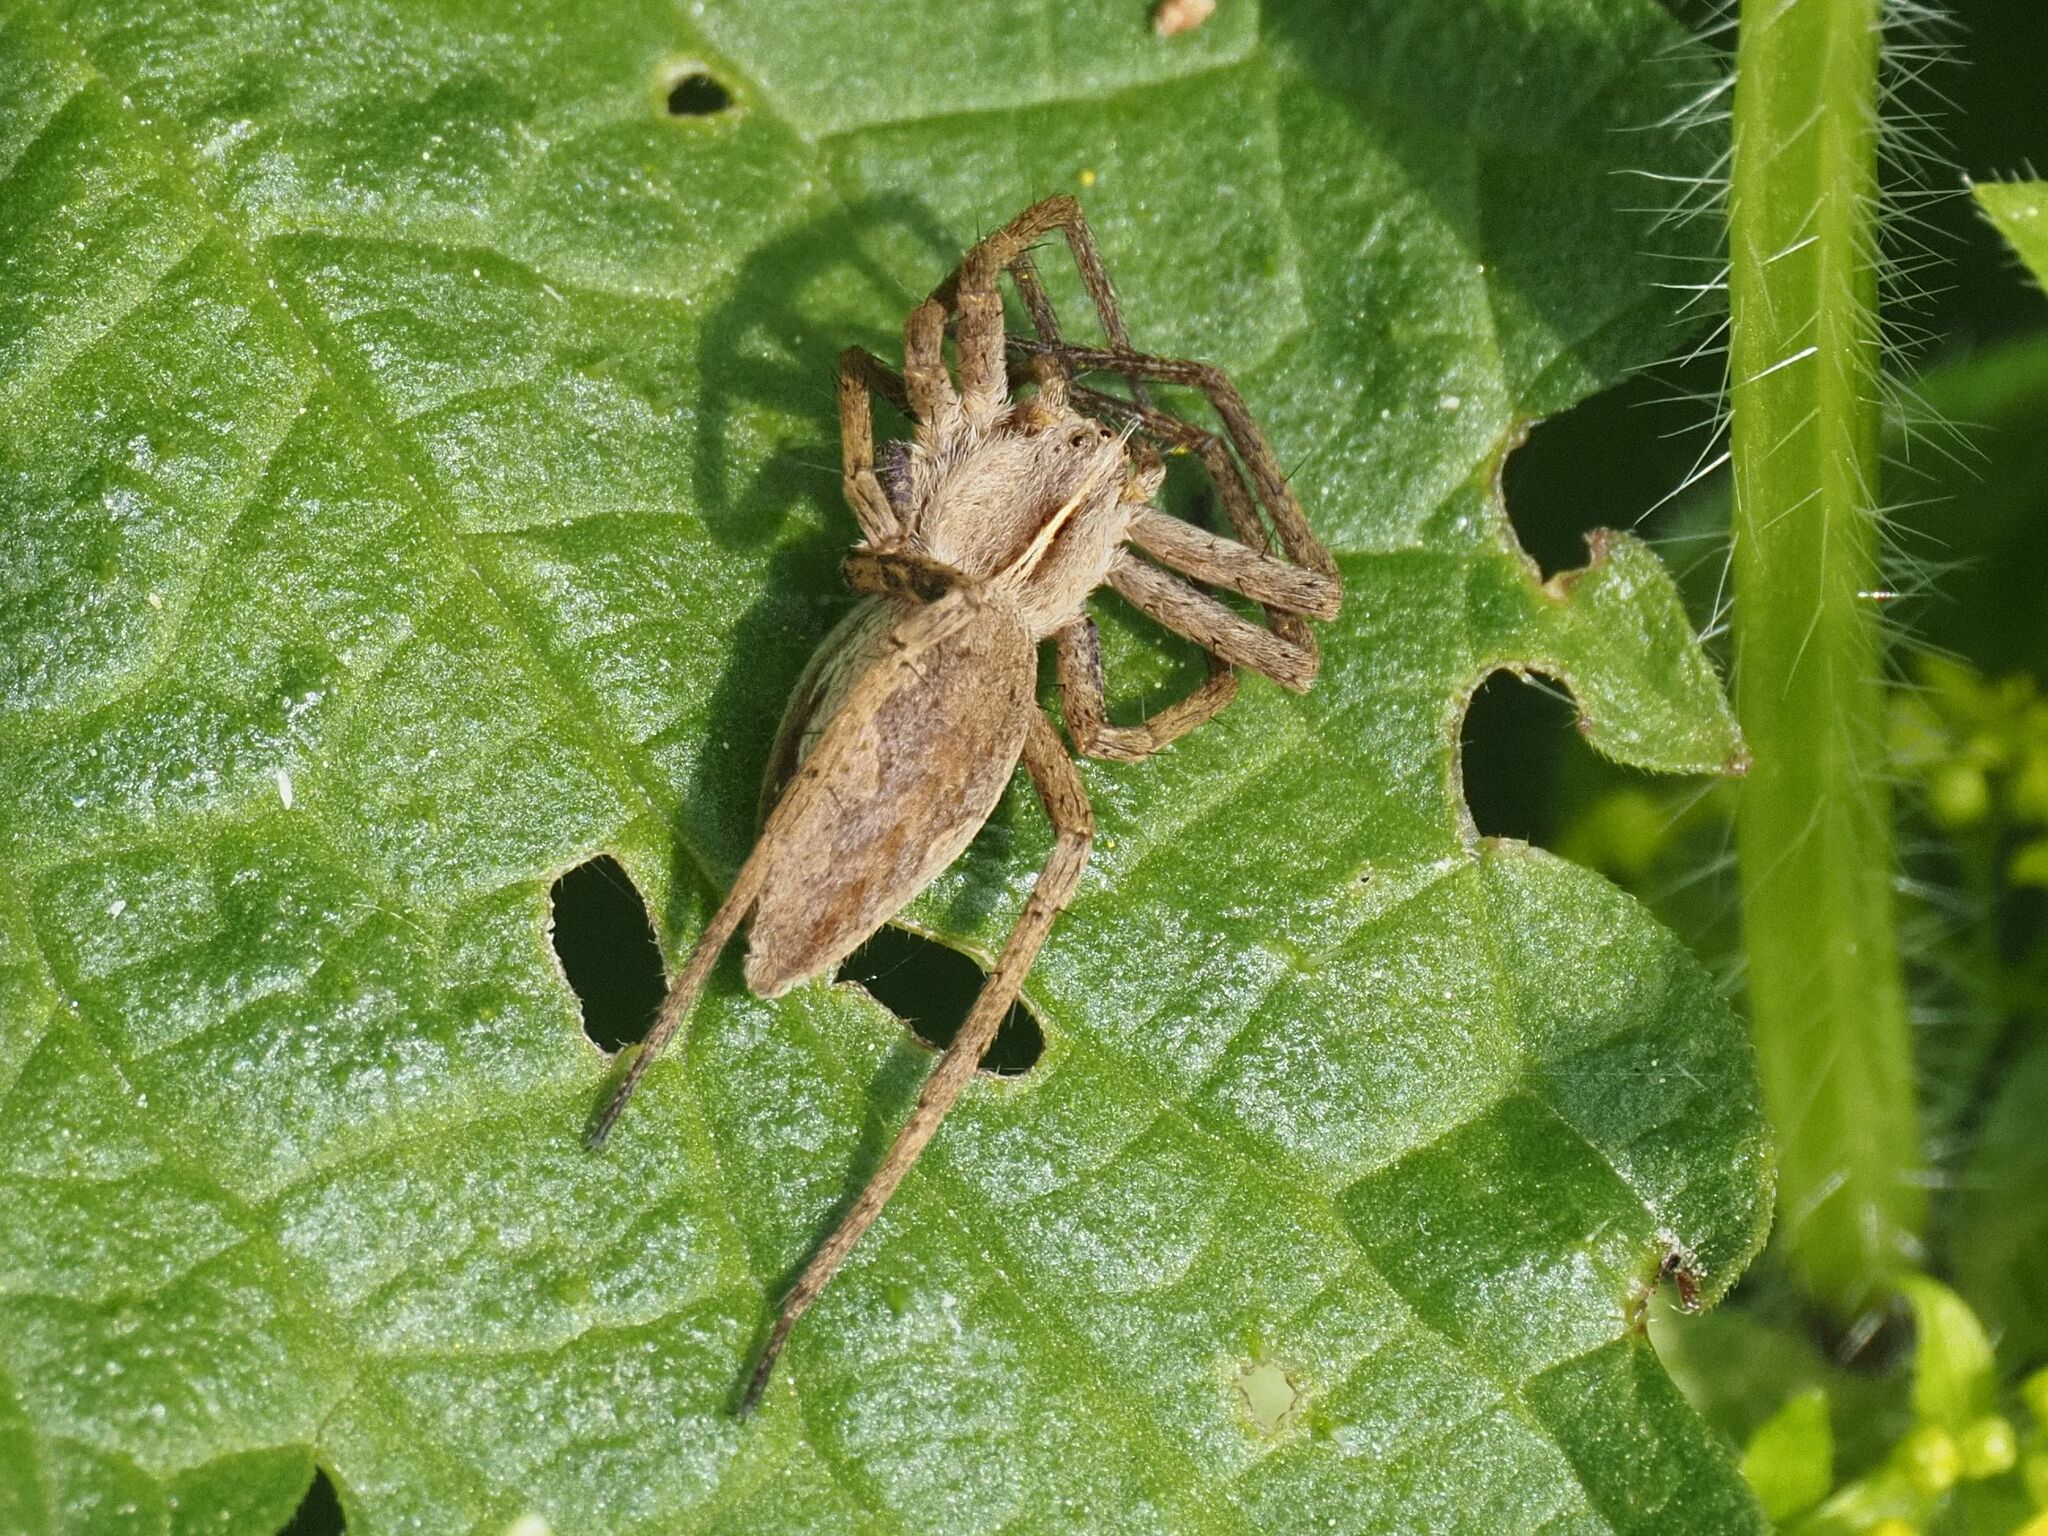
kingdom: Animalia
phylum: Arthropoda
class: Arachnida
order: Araneae
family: Pisauridae
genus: Pisaura
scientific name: Pisaura mirabilis
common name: Tent spider
